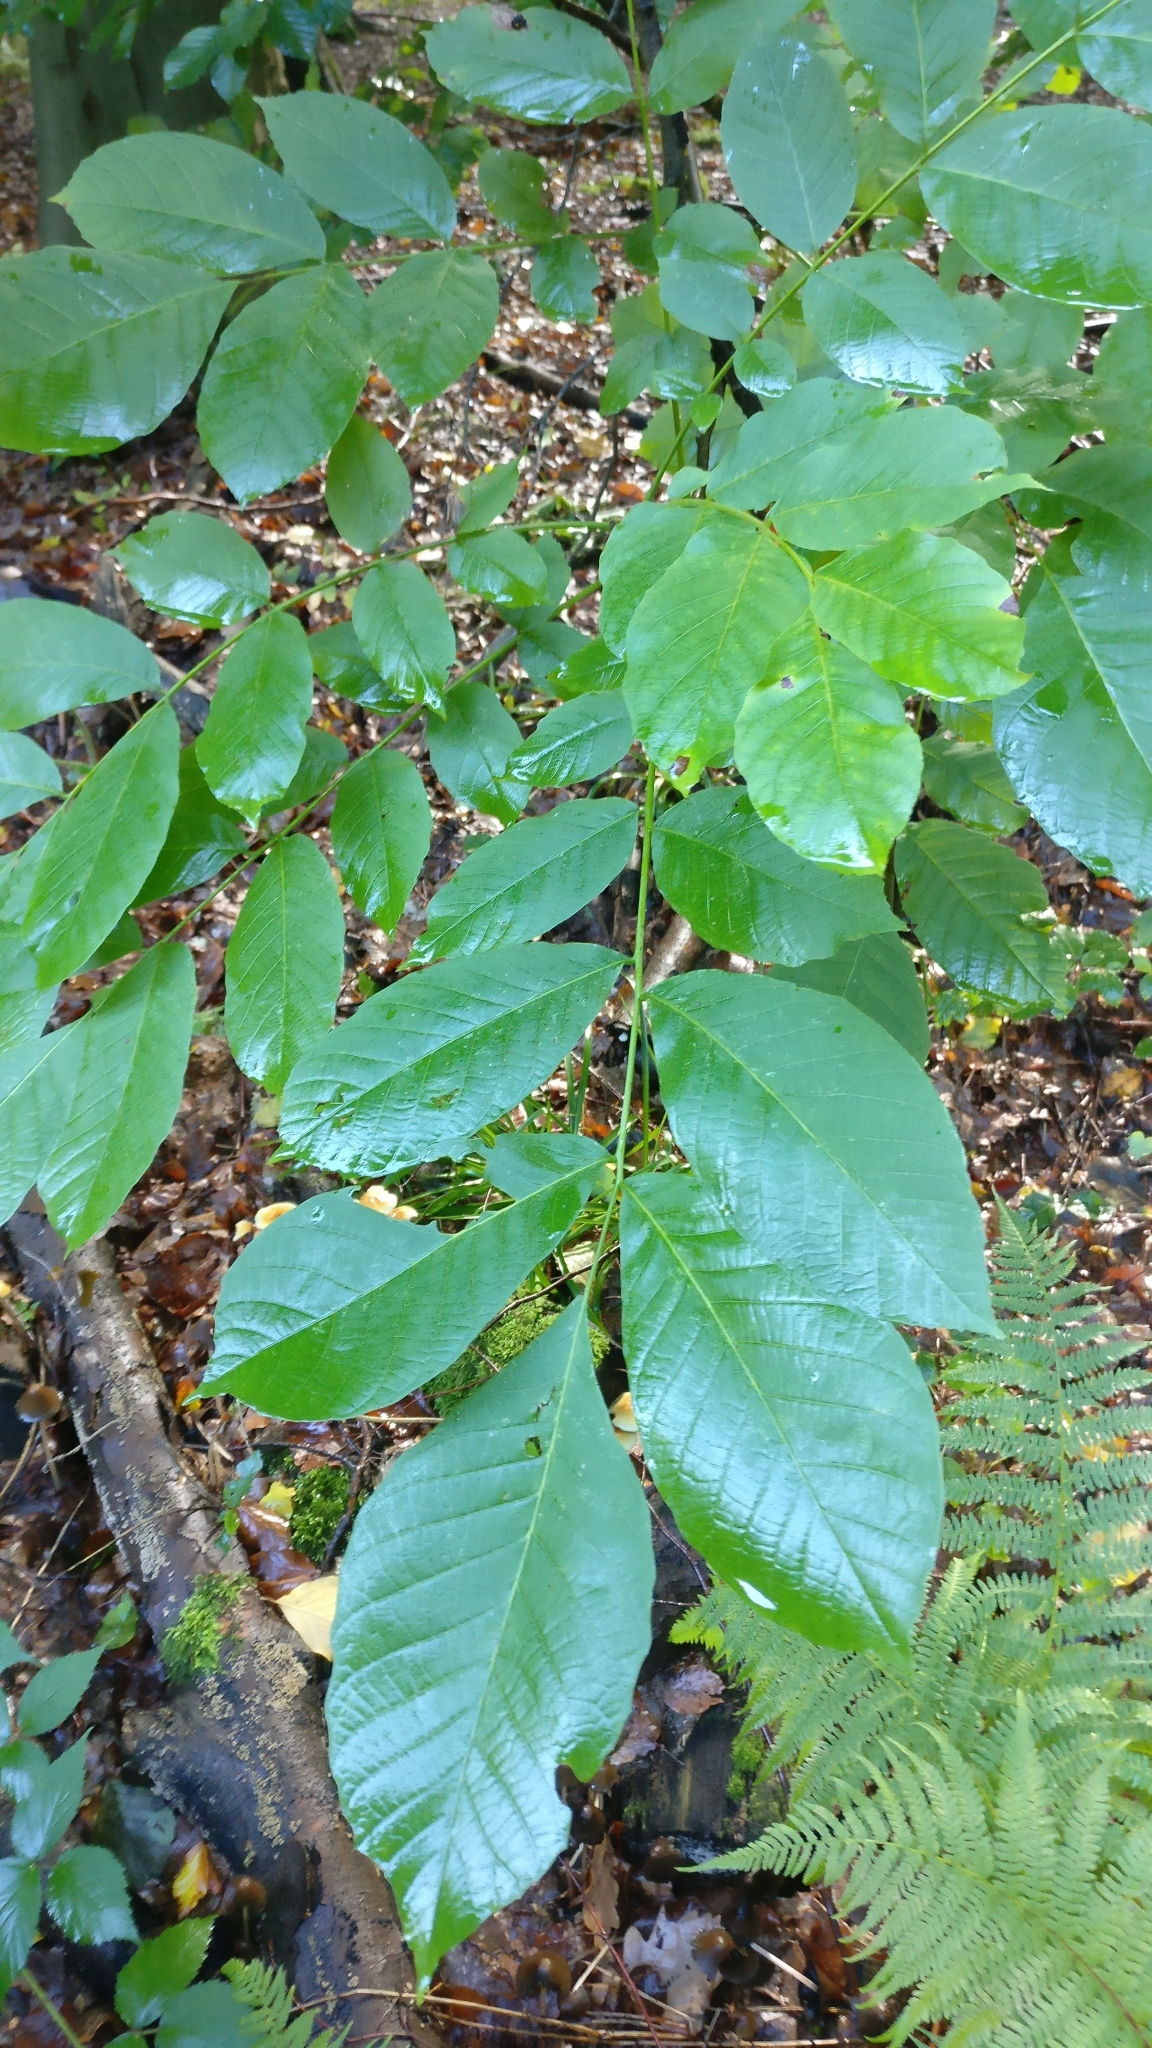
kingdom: Plantae
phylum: Tracheophyta
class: Magnoliopsida
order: Fagales
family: Juglandaceae
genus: Juglans
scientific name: Juglans regia
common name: Walnut
